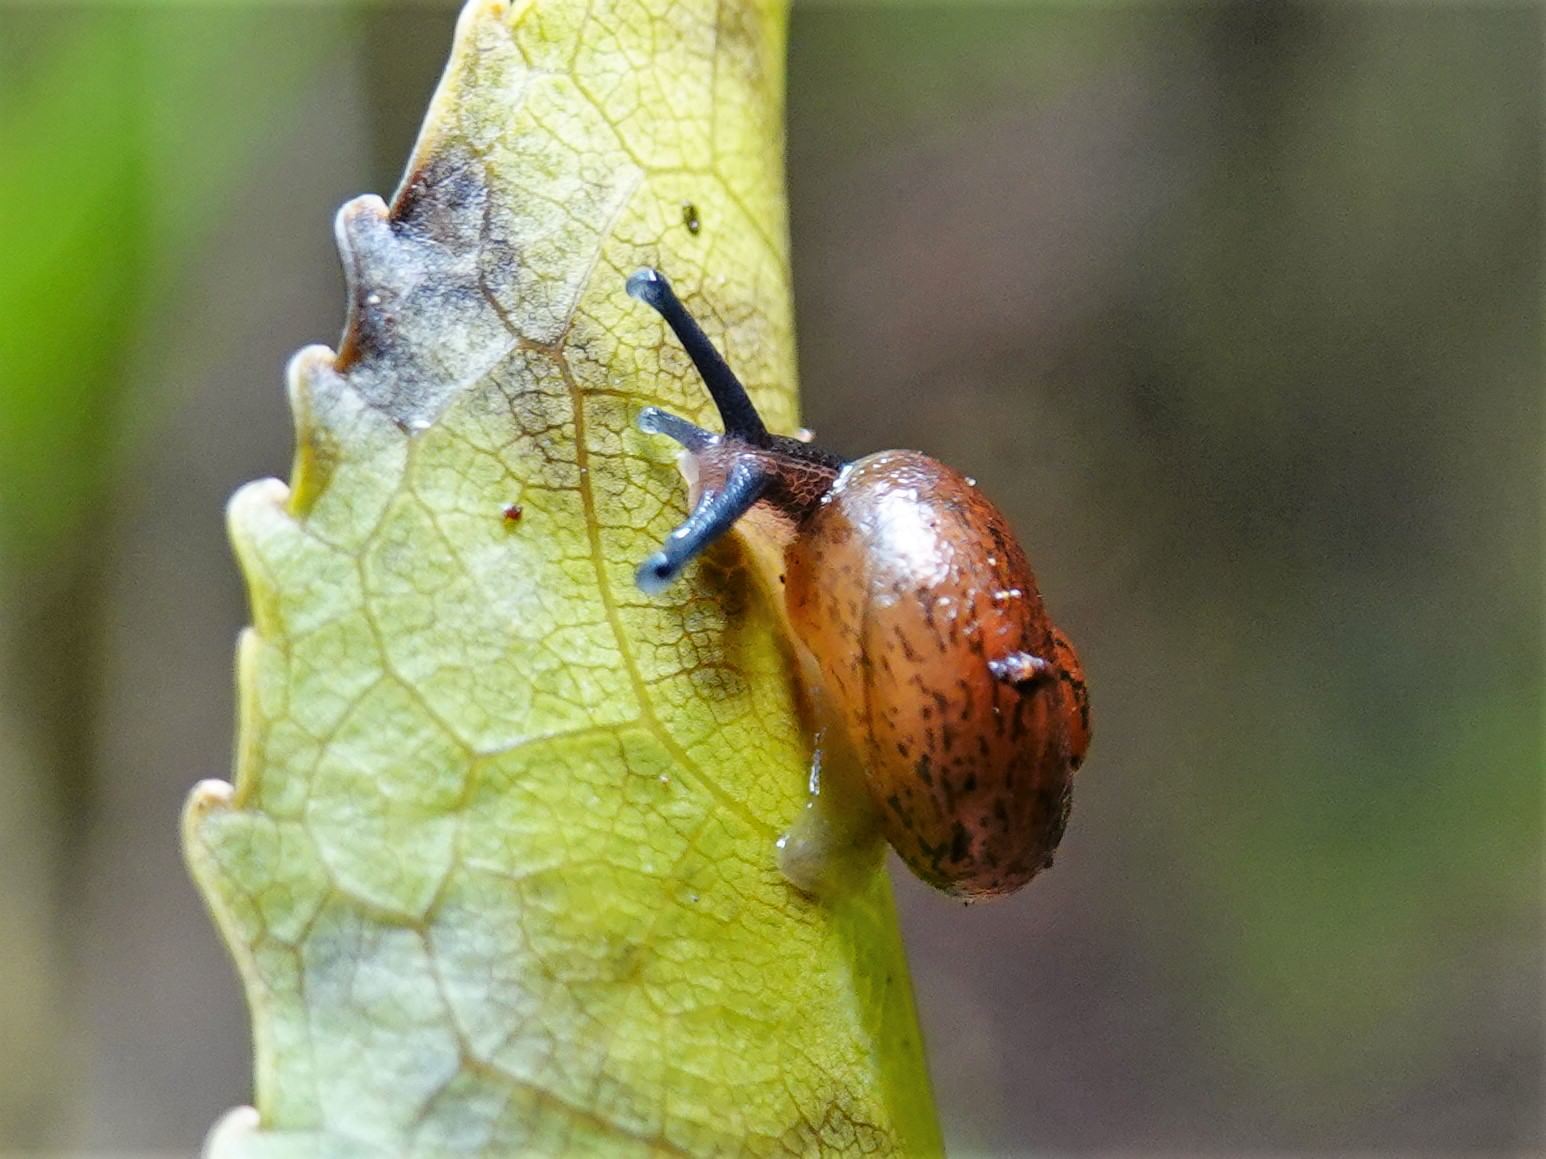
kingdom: Animalia
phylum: Mollusca
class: Gastropoda
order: Stylommatophora
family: Rhytididae
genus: Rhytida
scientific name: Rhytida greenwoodi
